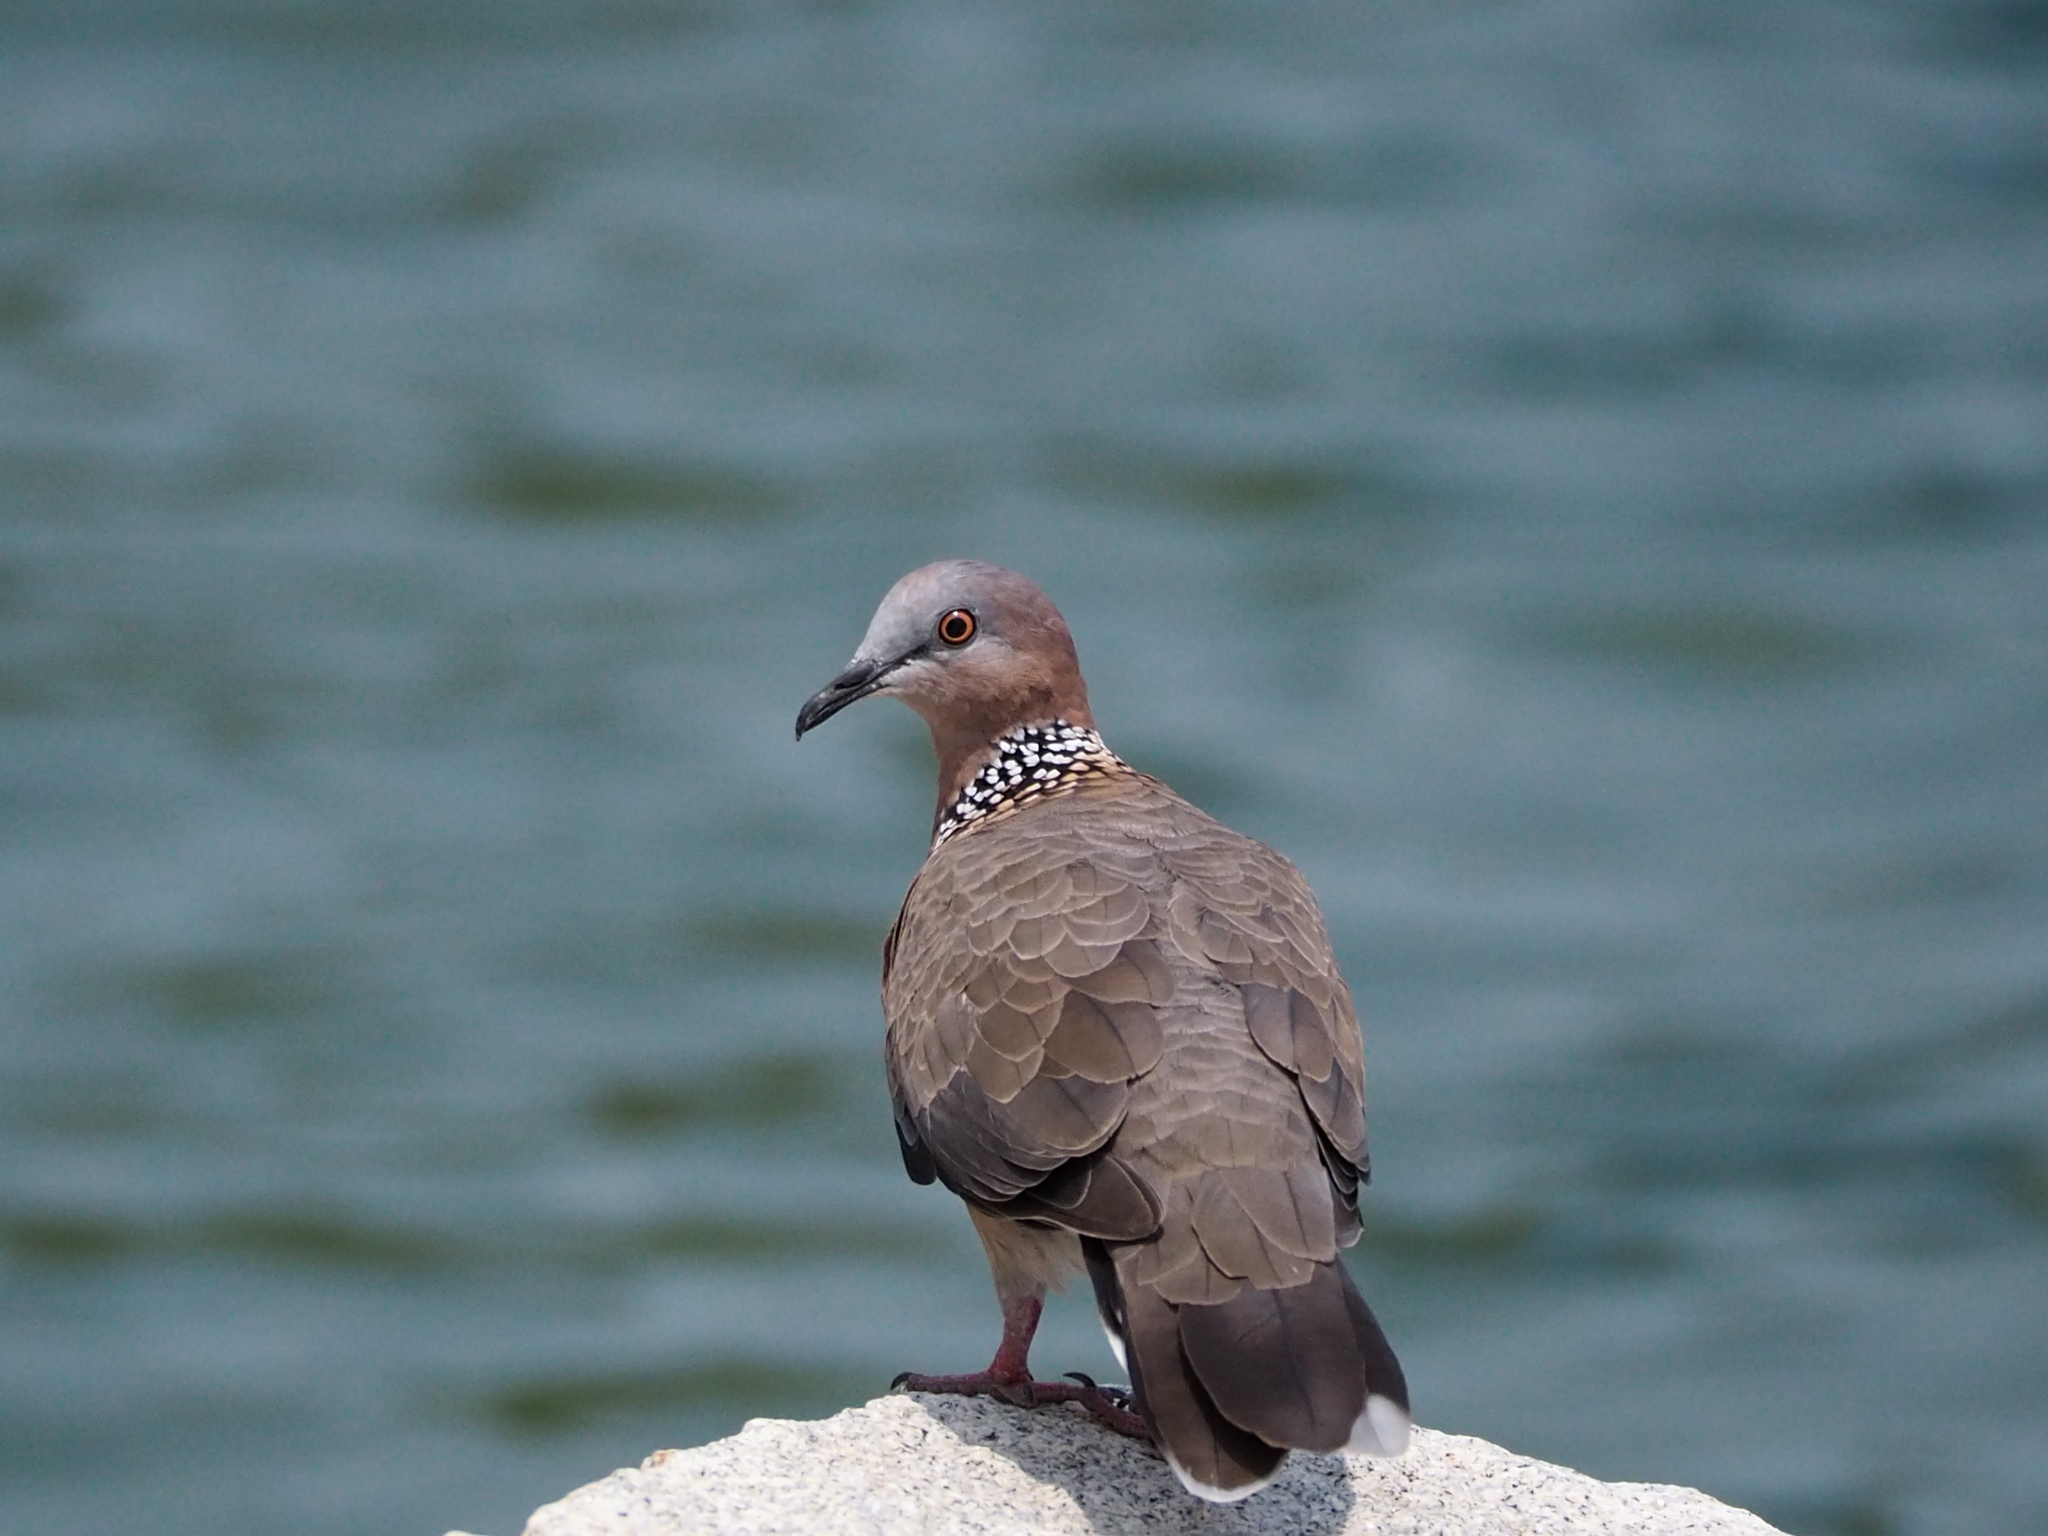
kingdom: Animalia
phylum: Chordata
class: Aves
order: Columbiformes
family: Columbidae
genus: Spilopelia
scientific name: Spilopelia chinensis
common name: Spotted dove
